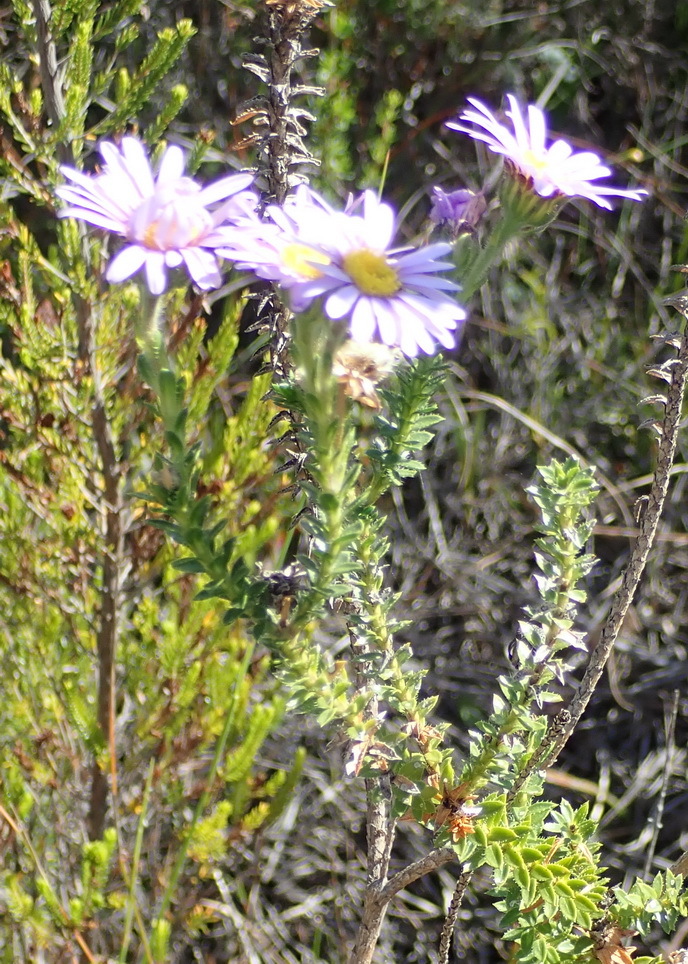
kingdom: Plantae
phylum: Tracheophyta
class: Magnoliopsida
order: Asterales
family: Asteraceae
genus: Felicia
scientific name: Felicia echinata
